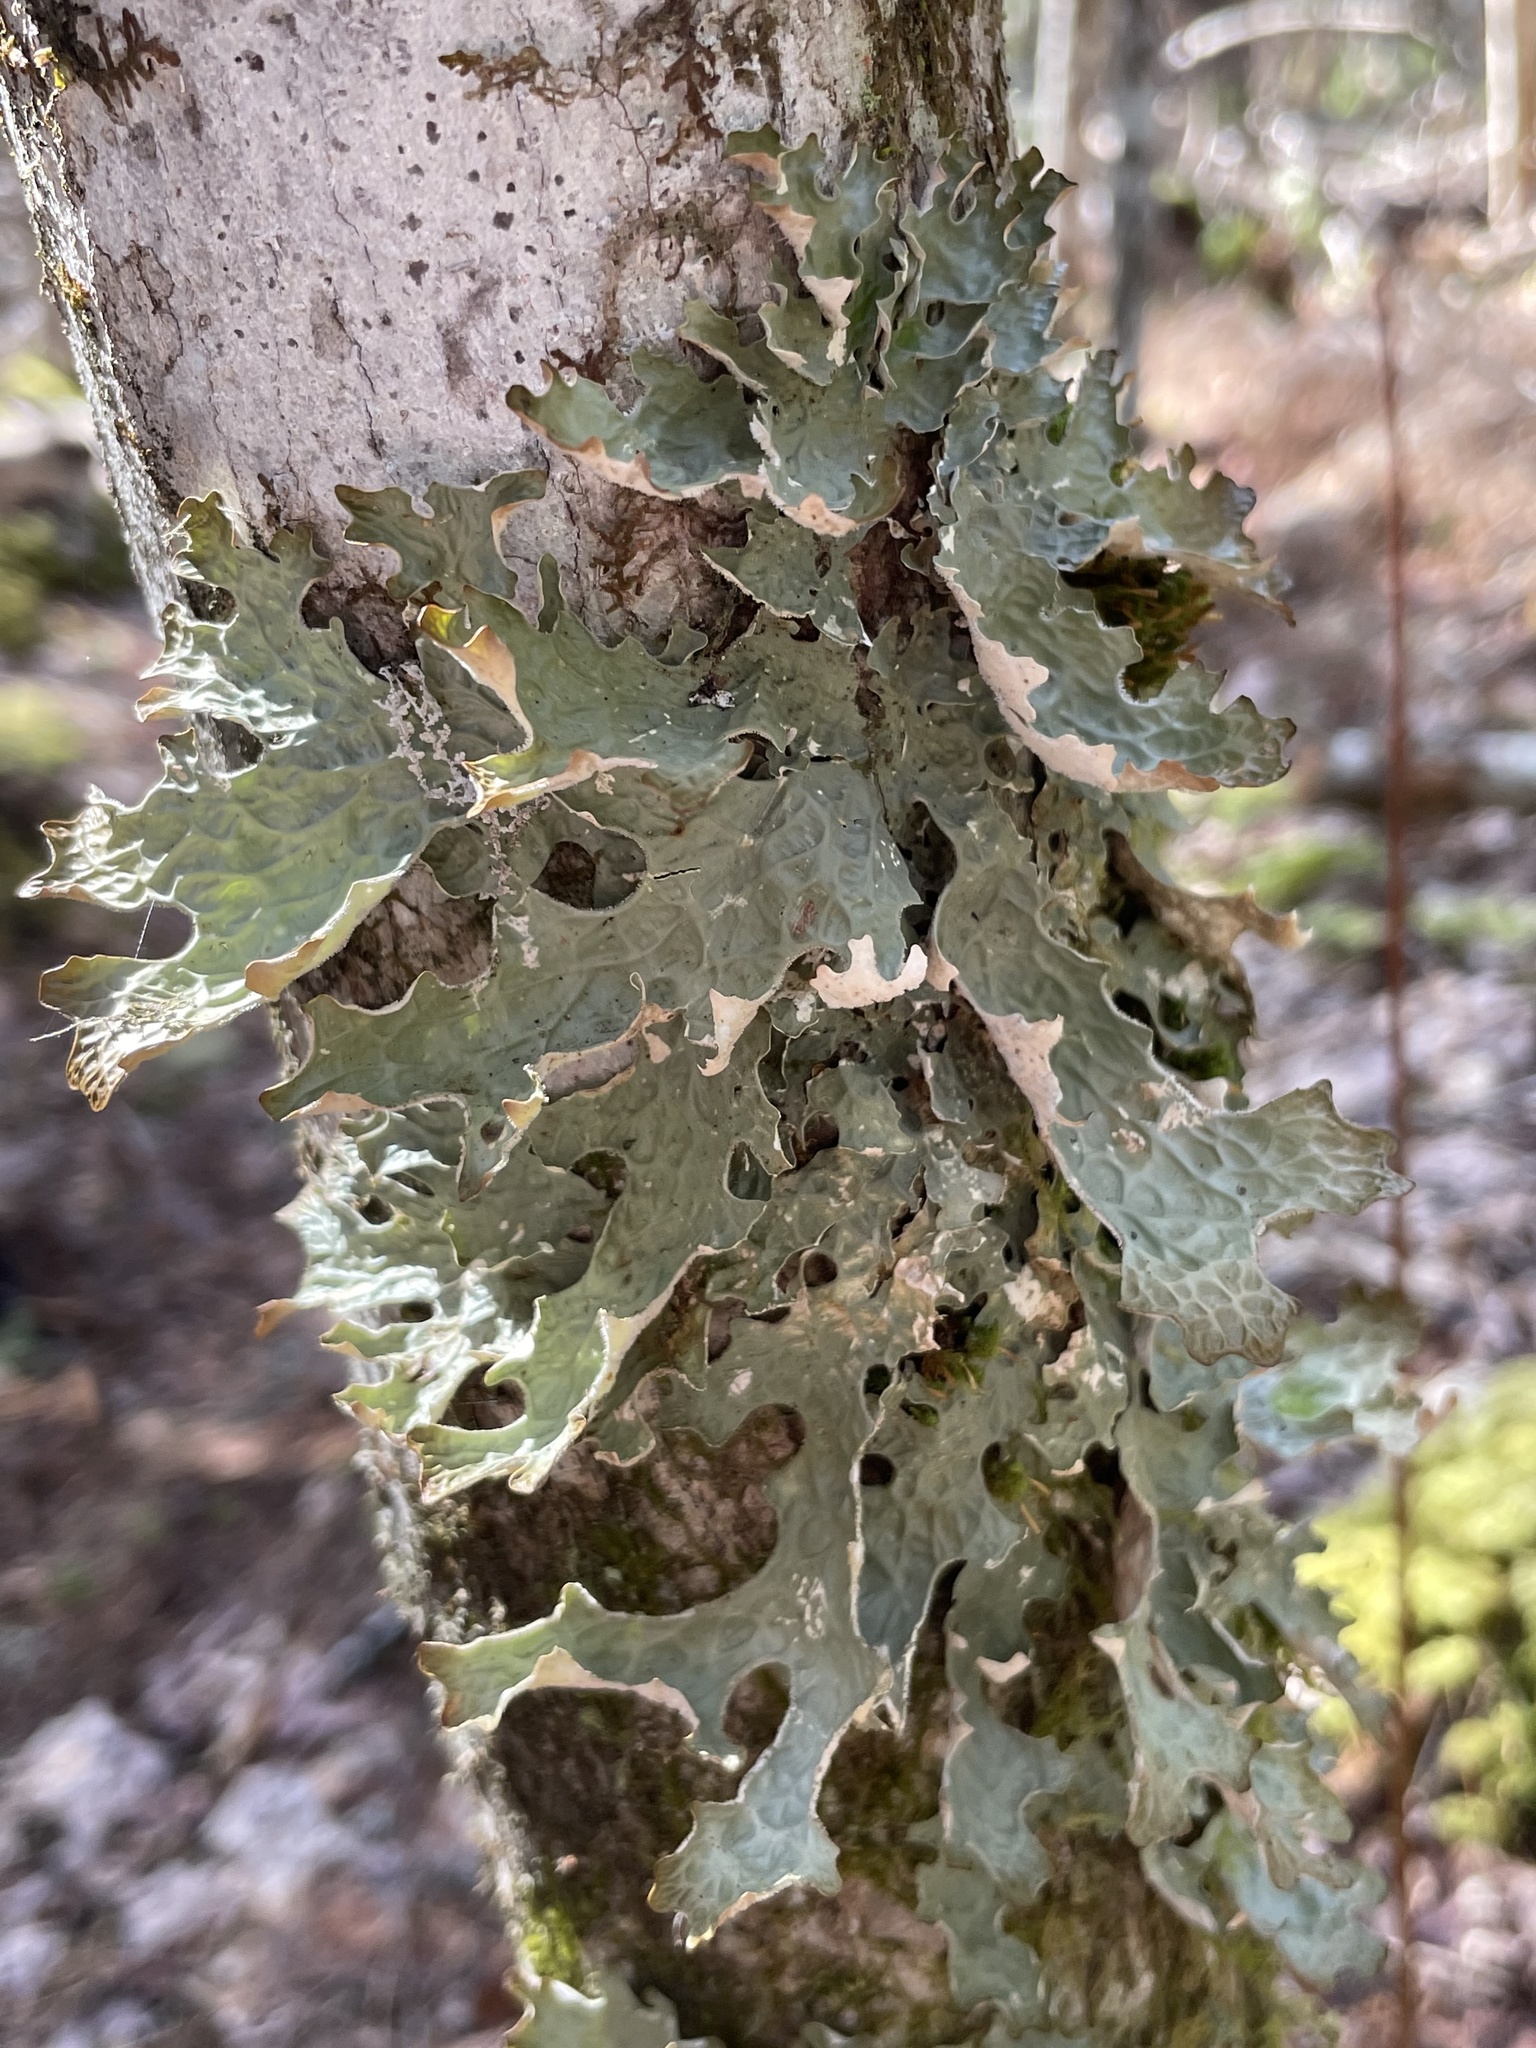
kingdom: Fungi
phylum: Ascomycota
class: Lecanoromycetes
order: Peltigerales
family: Lobariaceae
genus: Lobaria
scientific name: Lobaria pulmonaria
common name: Lungwort
